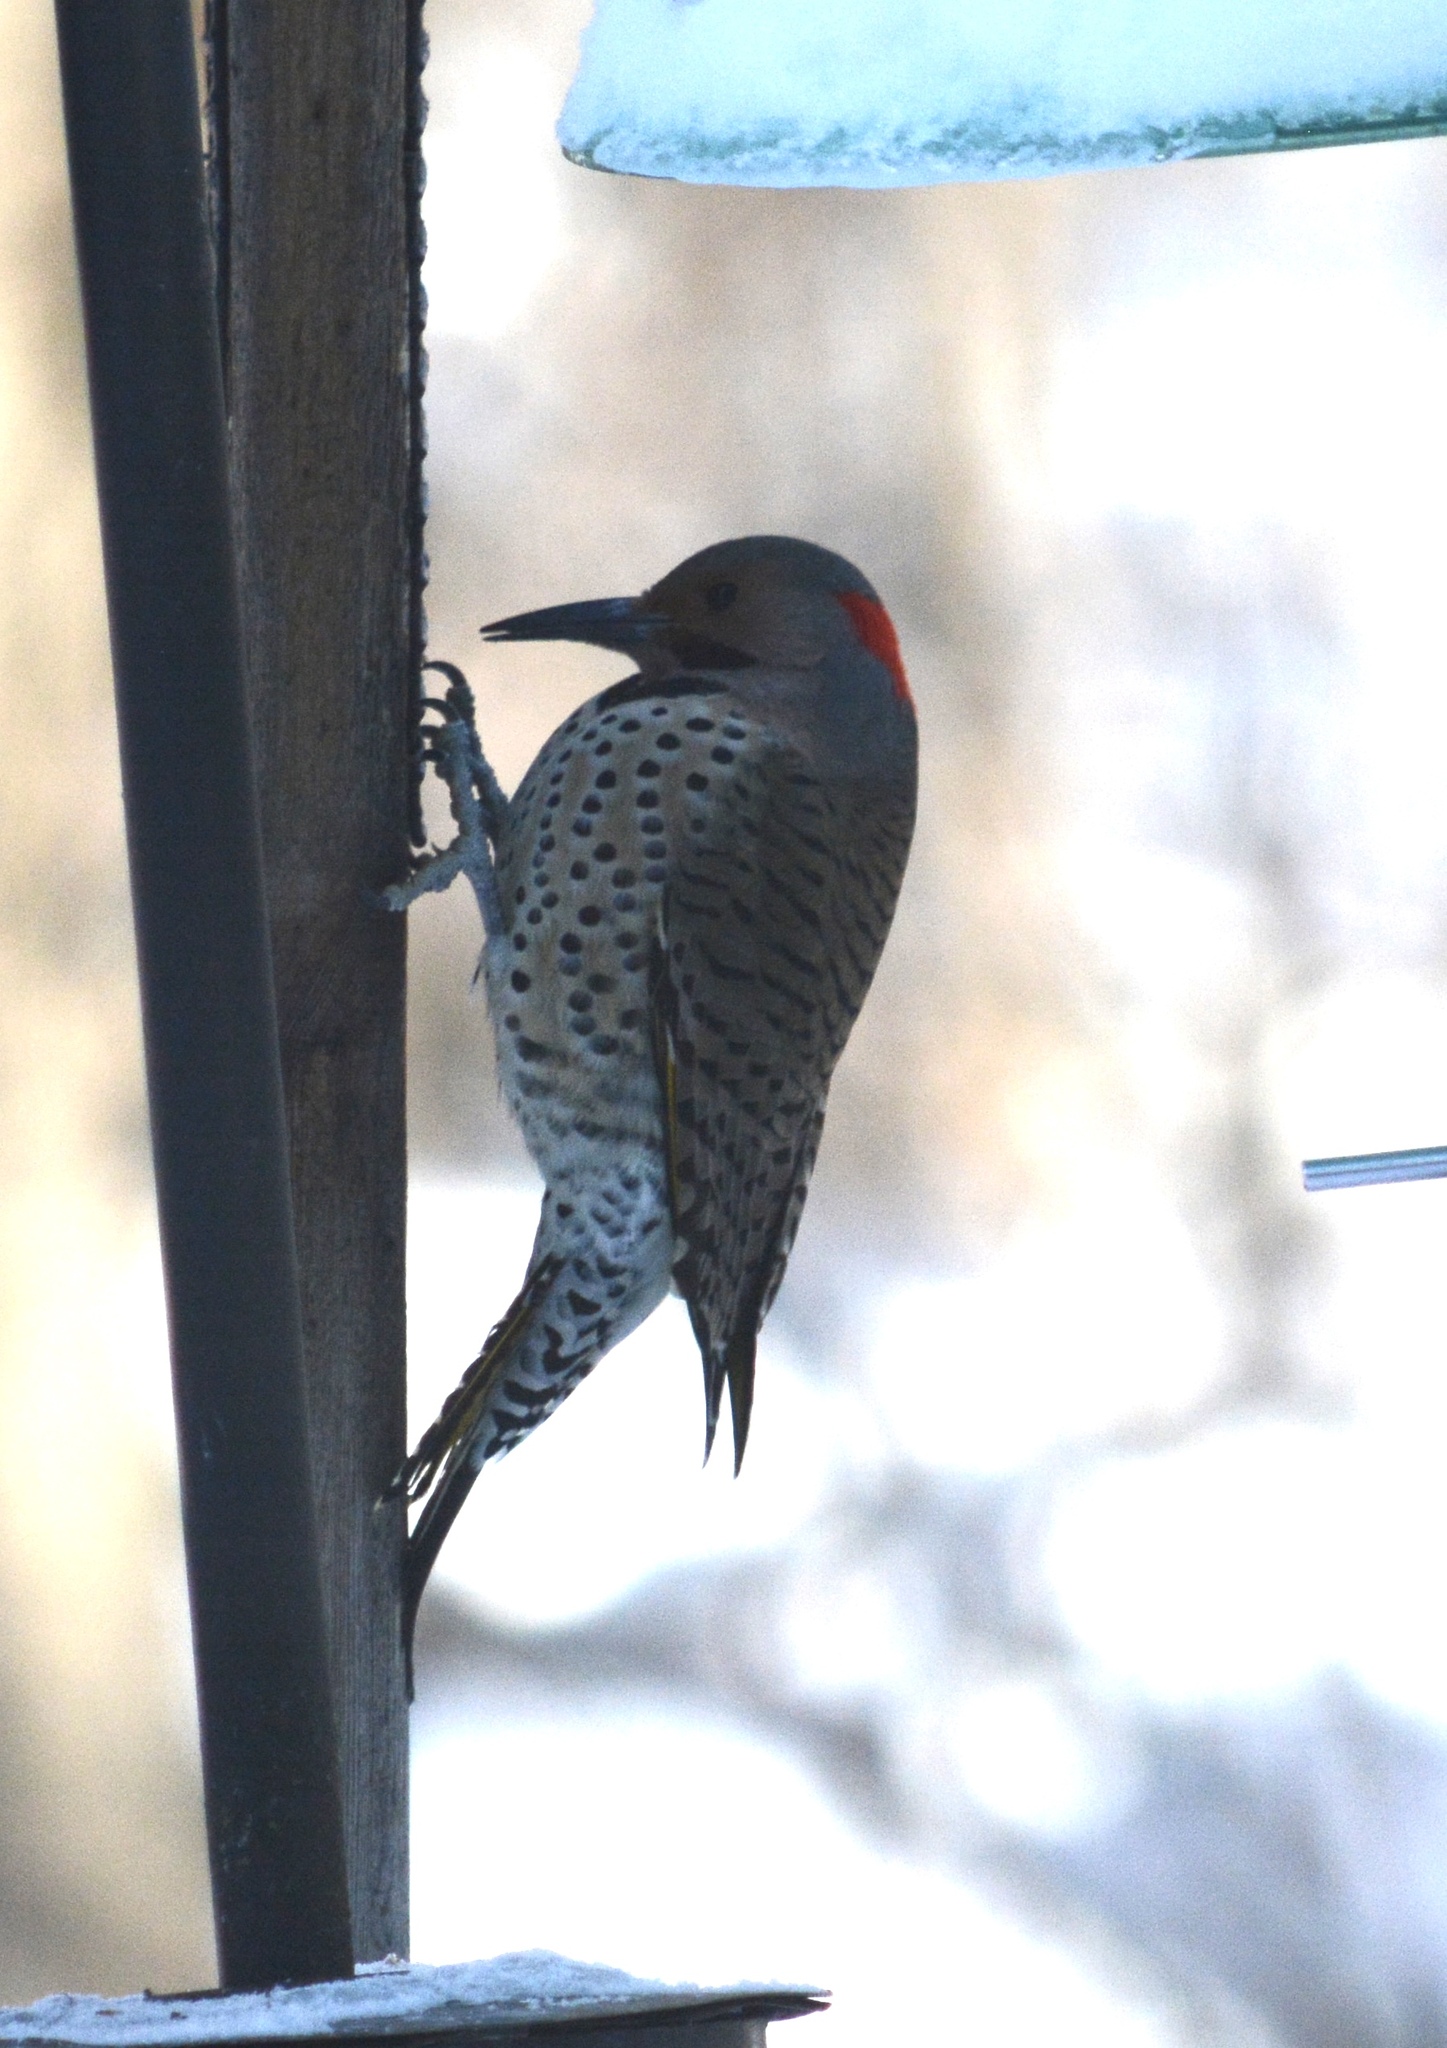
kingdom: Animalia
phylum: Chordata
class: Aves
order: Piciformes
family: Picidae
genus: Colaptes
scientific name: Colaptes auratus
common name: Northern flicker
